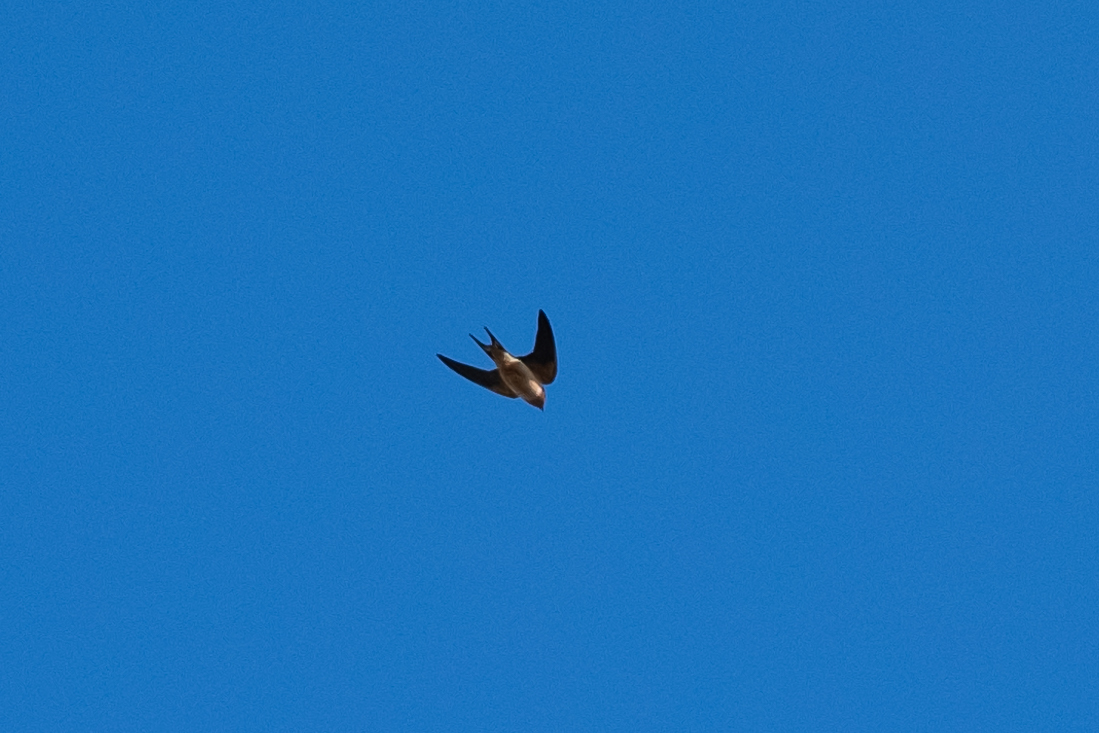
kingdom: Animalia
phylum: Chordata
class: Aves
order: Passeriformes
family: Hirundinidae
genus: Hirundo
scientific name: Hirundo rustica
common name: Barn swallow
